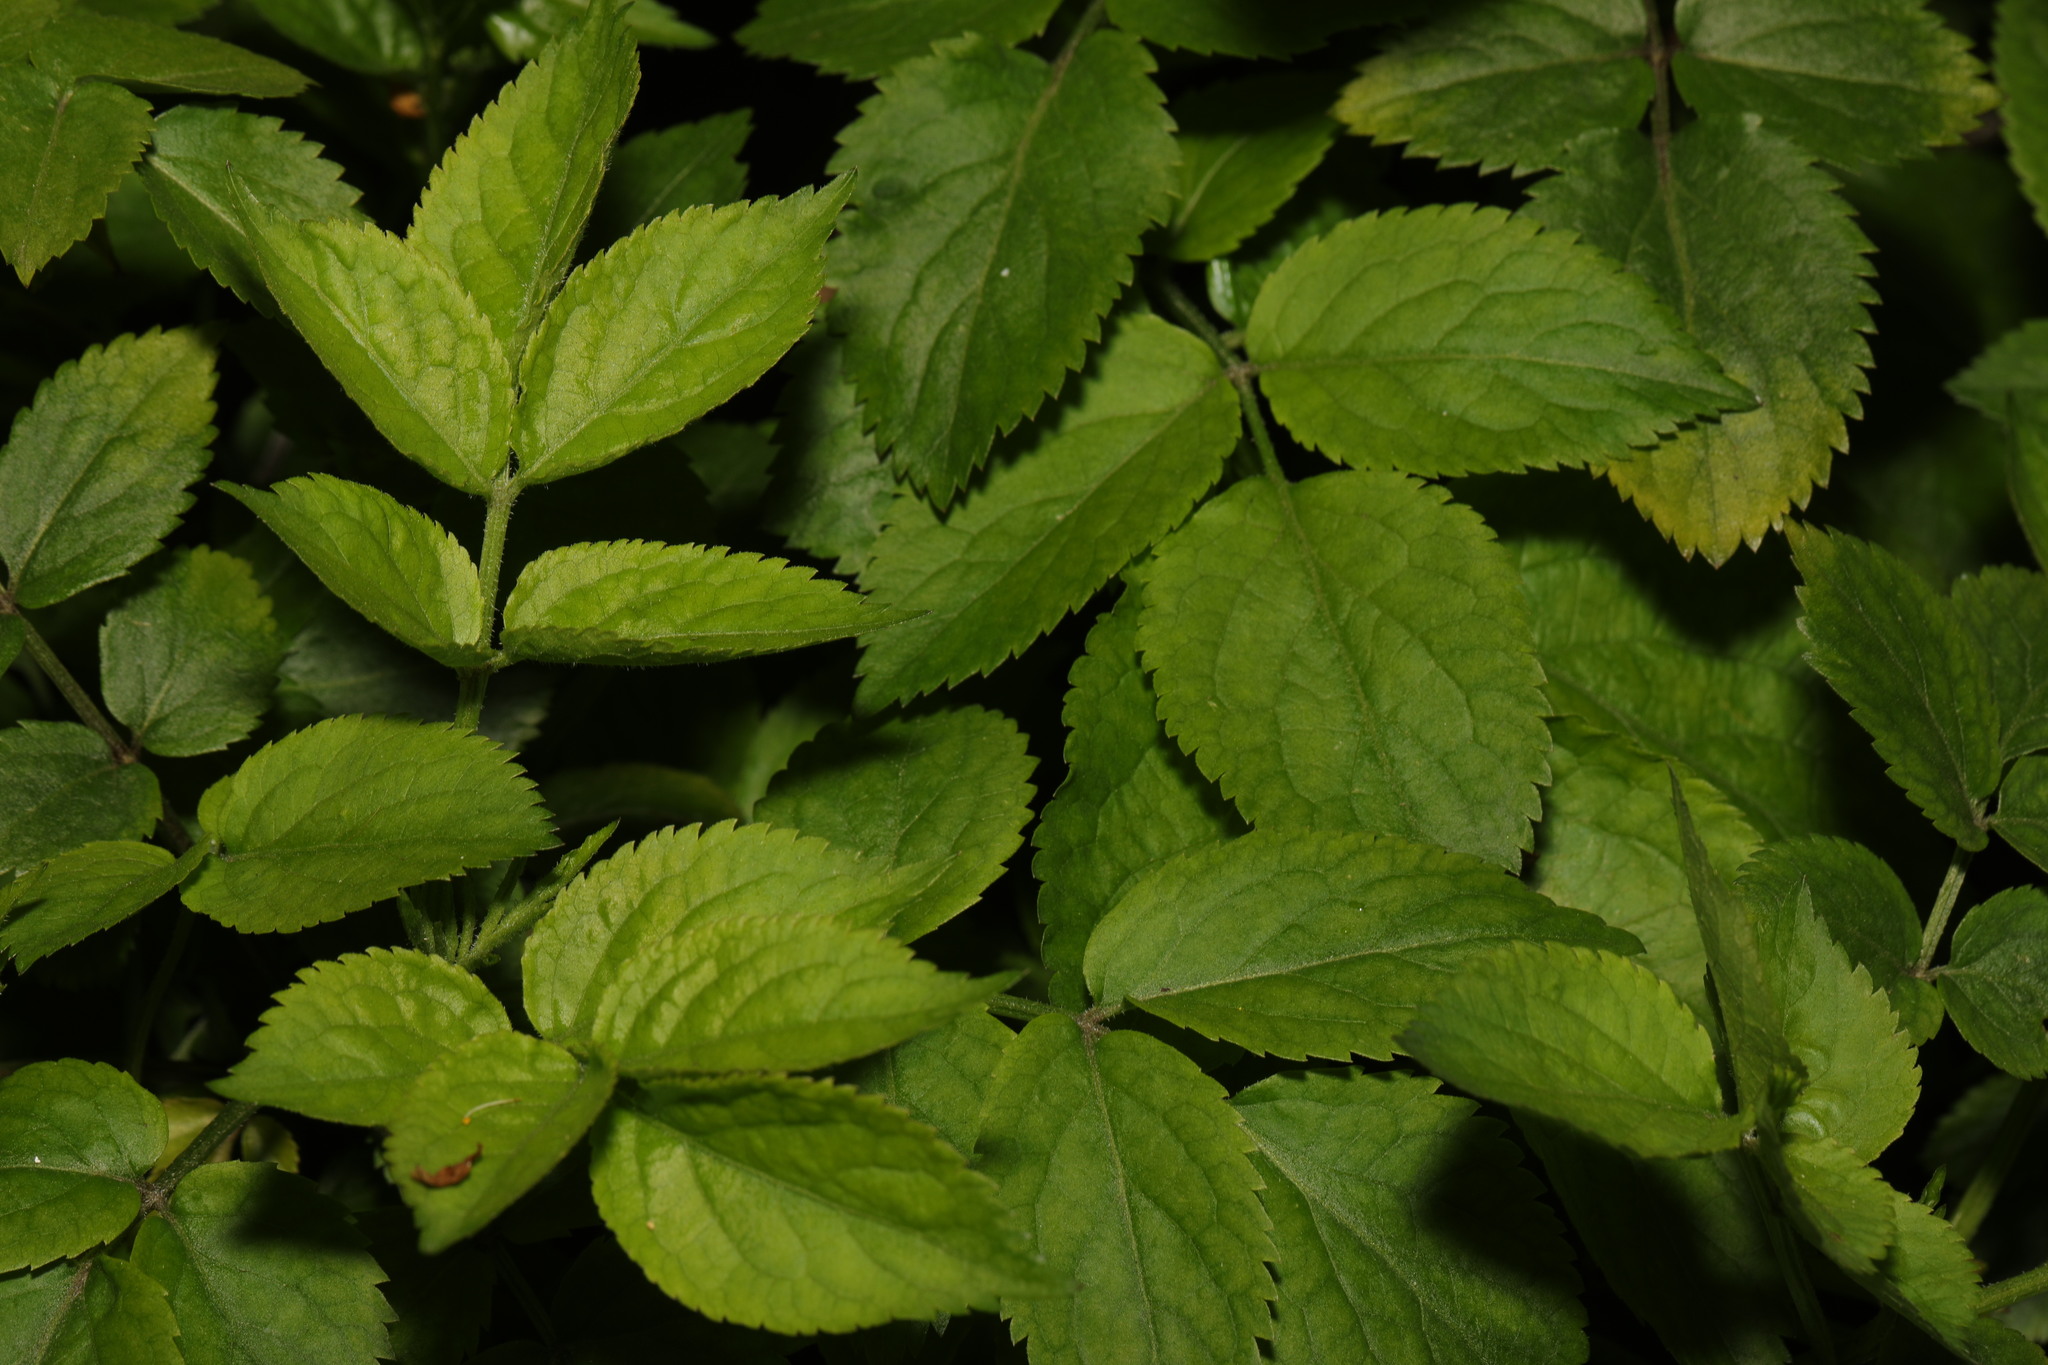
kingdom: Plantae
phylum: Tracheophyta
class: Magnoliopsida
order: Dipsacales
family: Viburnaceae
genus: Sambucus
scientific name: Sambucus nigra
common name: Elder
